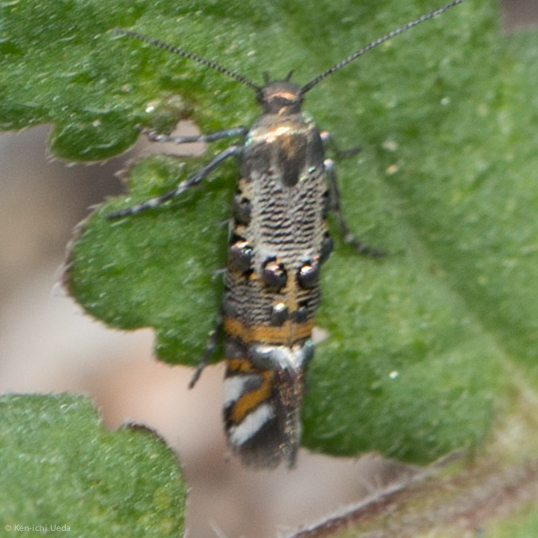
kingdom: Animalia
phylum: Arthropoda
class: Insecta
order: Lepidoptera
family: Heliodinidae
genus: Lithariapteryx
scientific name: Lithariapteryx jubarella
